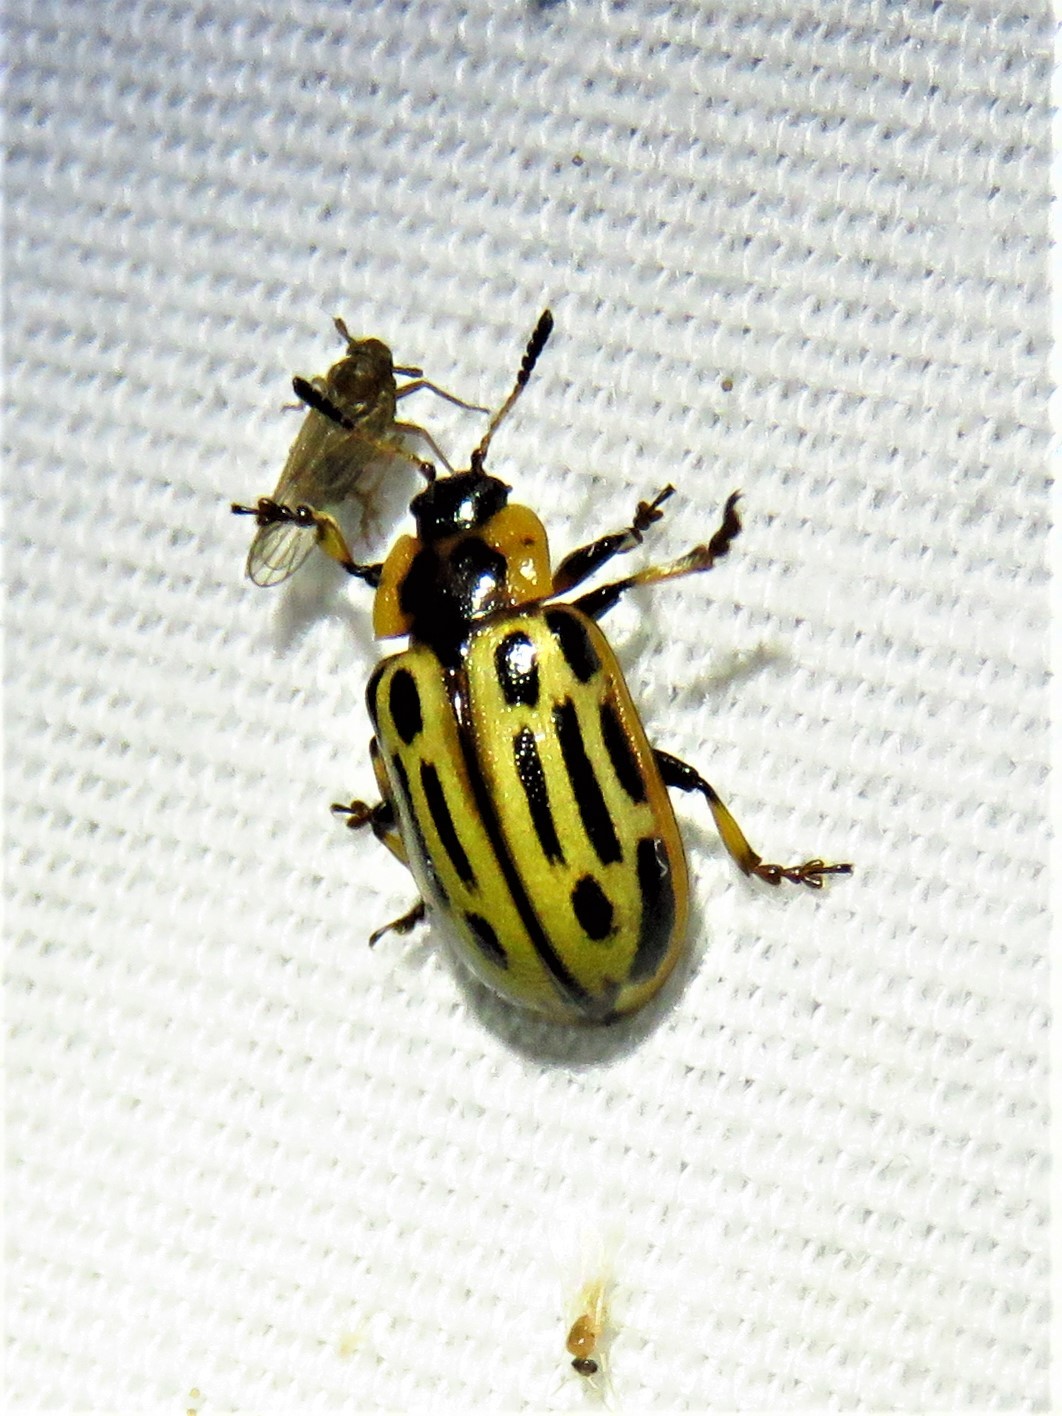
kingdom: Animalia
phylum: Arthropoda
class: Insecta
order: Coleoptera
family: Chrysomelidae
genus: Aethiopocassis
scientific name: Aethiopocassis scripta
